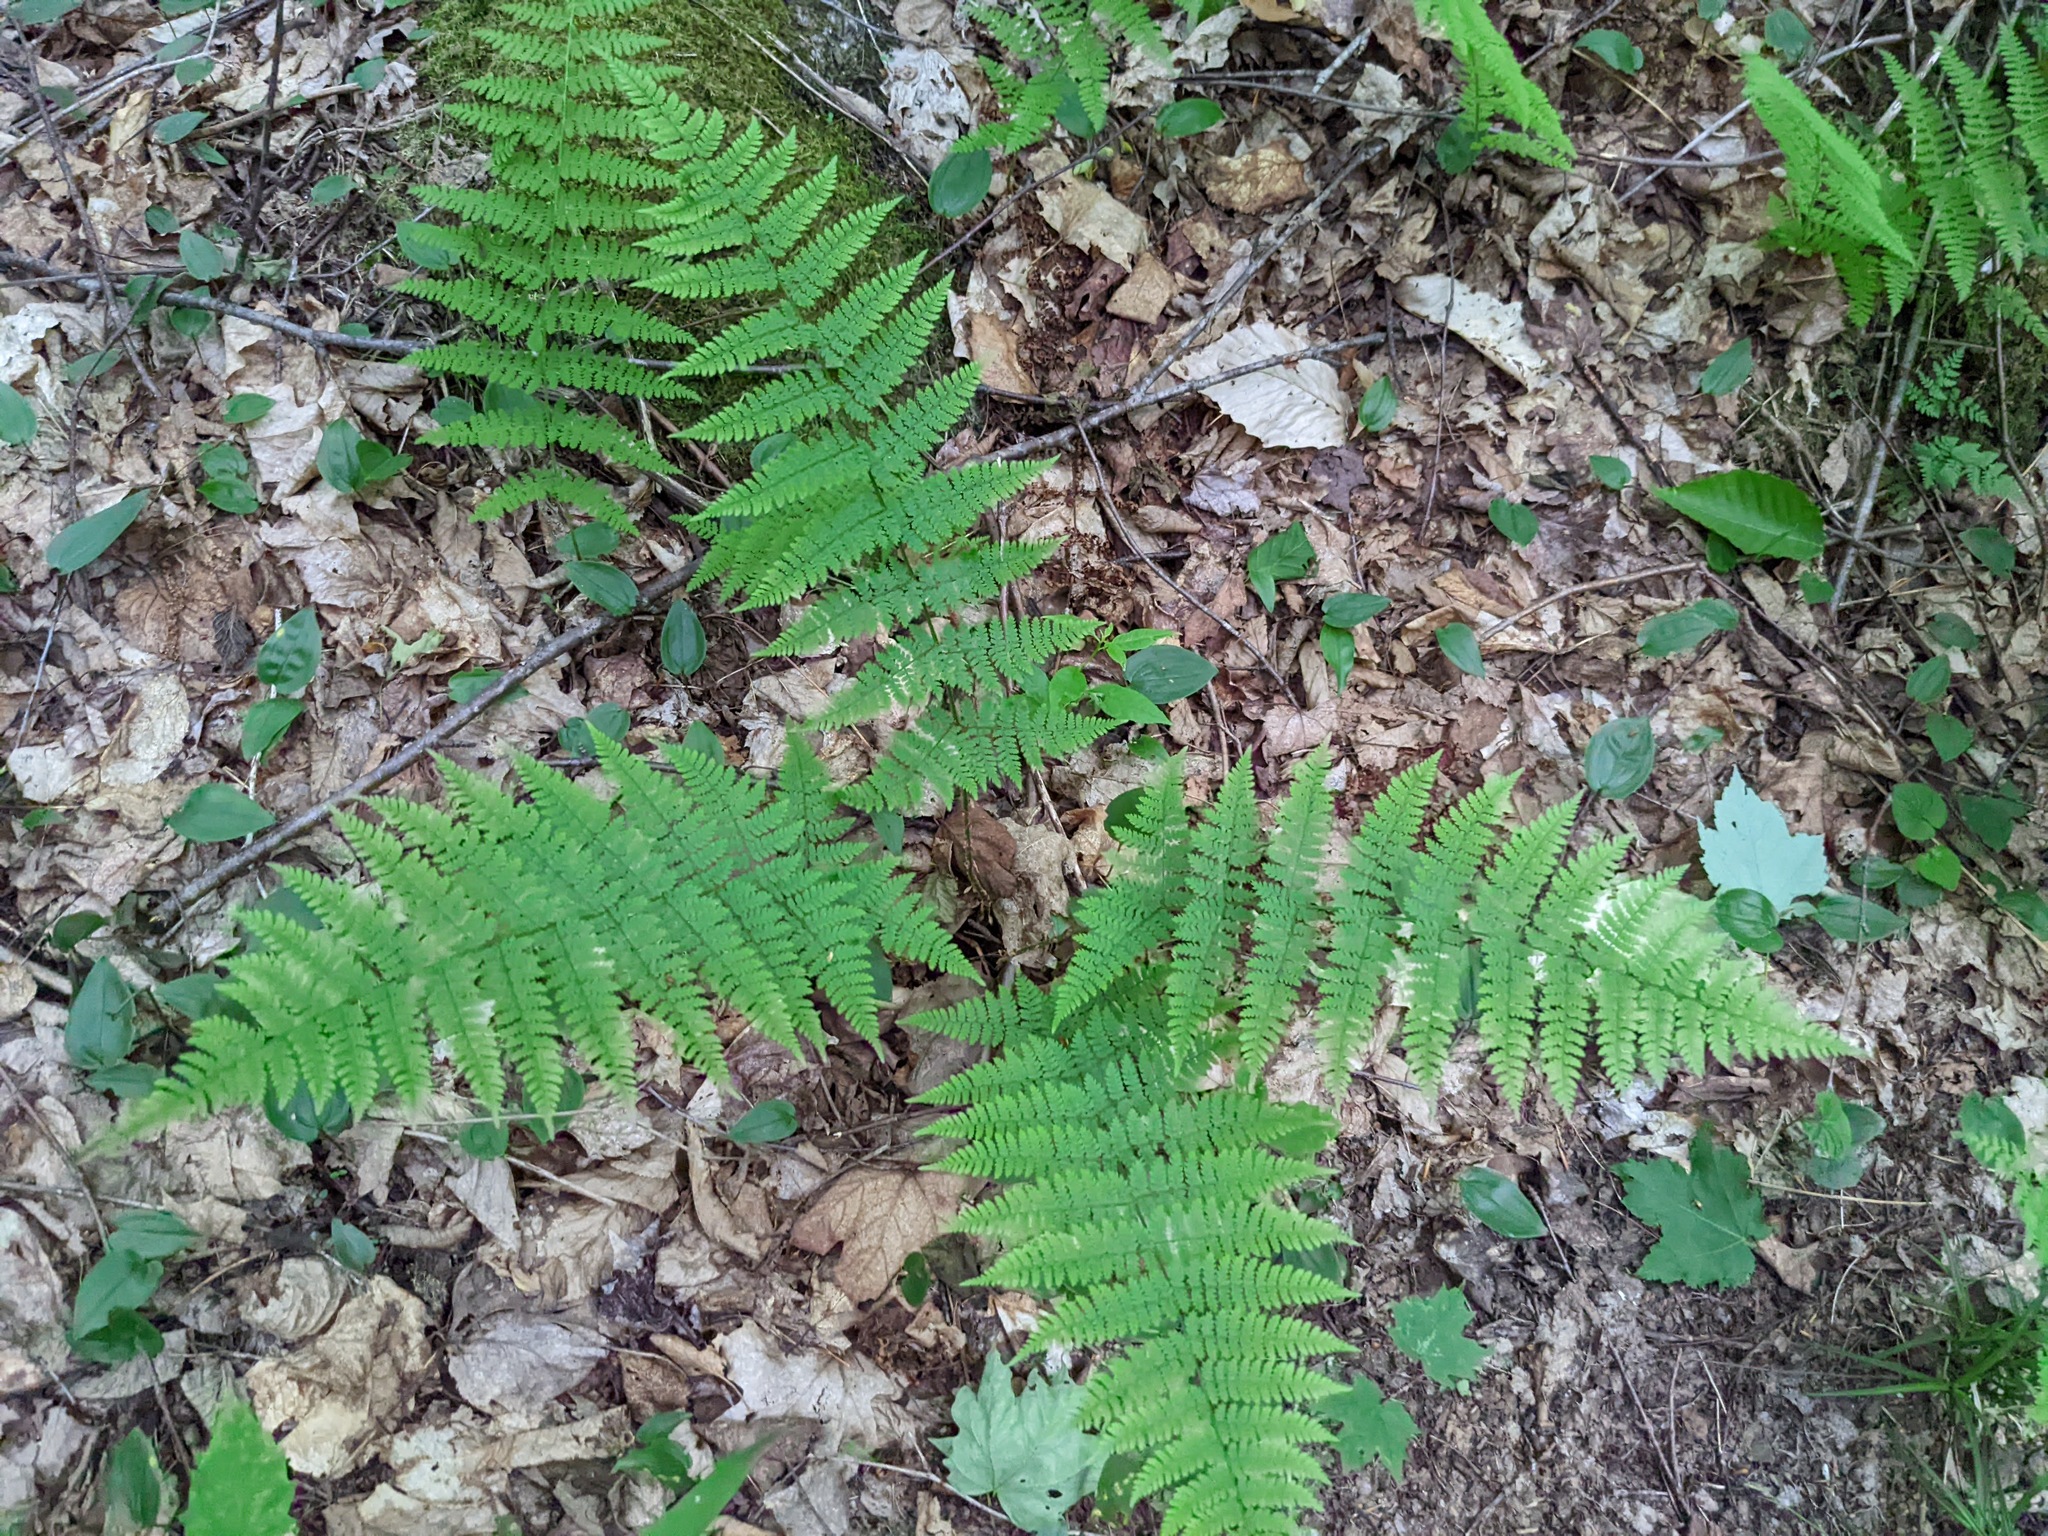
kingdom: Plantae
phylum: Tracheophyta
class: Polypodiopsida
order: Polypodiales
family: Dryopteridaceae
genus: Dryopteris
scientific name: Dryopteris intermedia
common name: Evergreen wood fern
